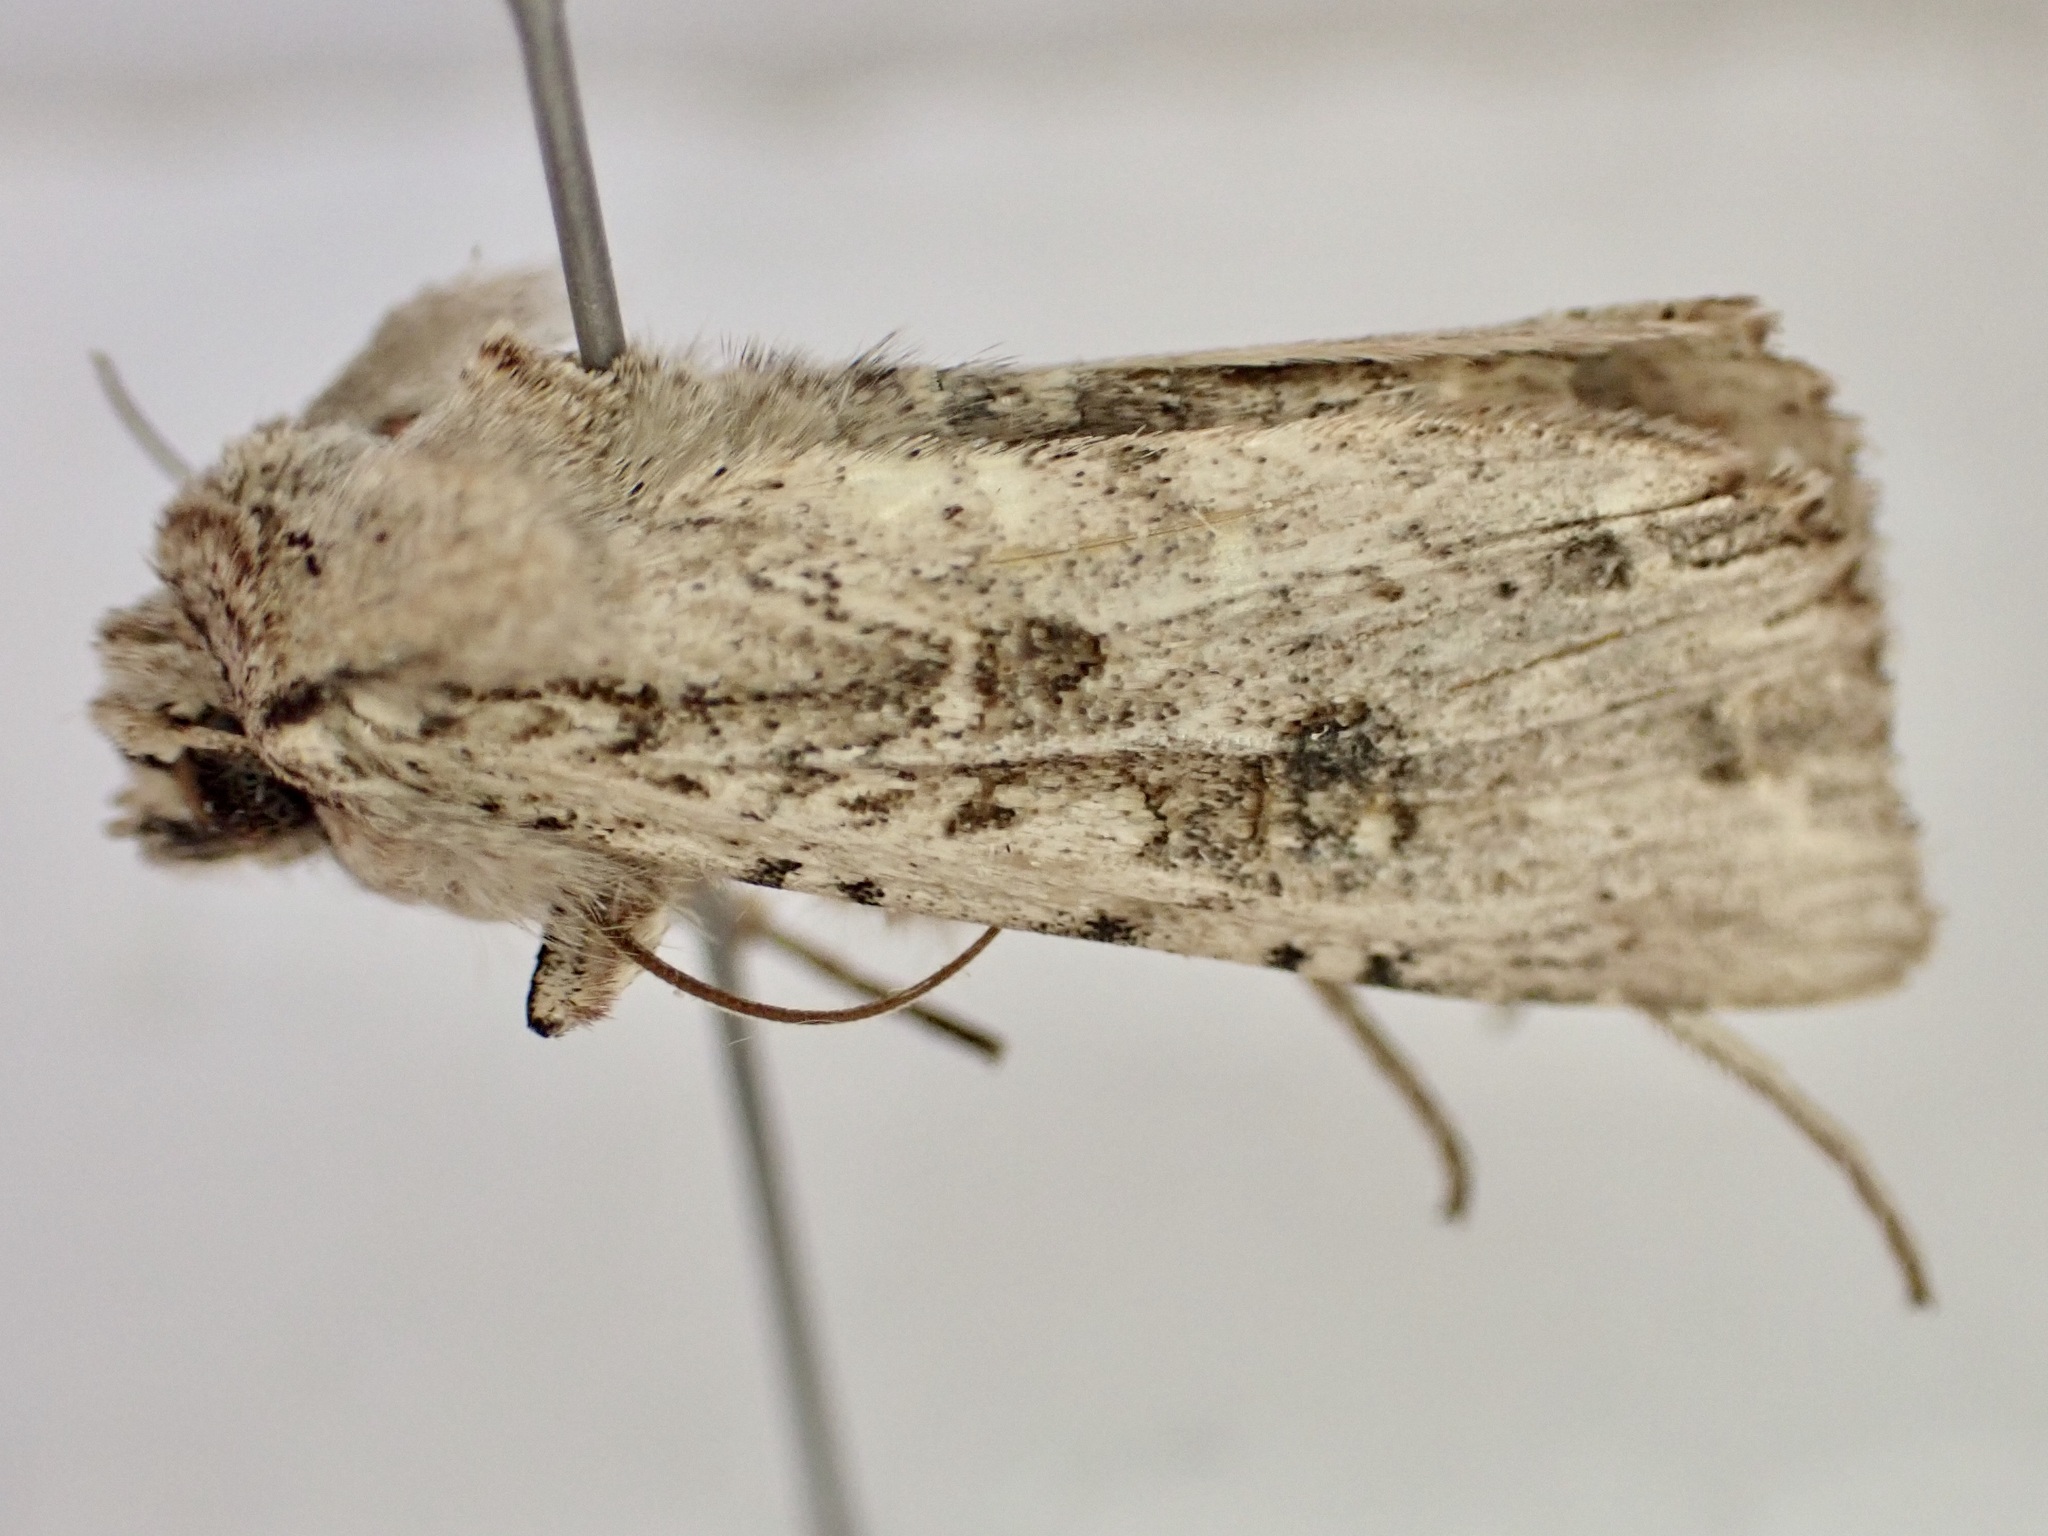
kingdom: Animalia
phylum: Arthropoda
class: Insecta
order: Lepidoptera
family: Noctuidae
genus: Ichneutica
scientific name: Ichneutica lignana
